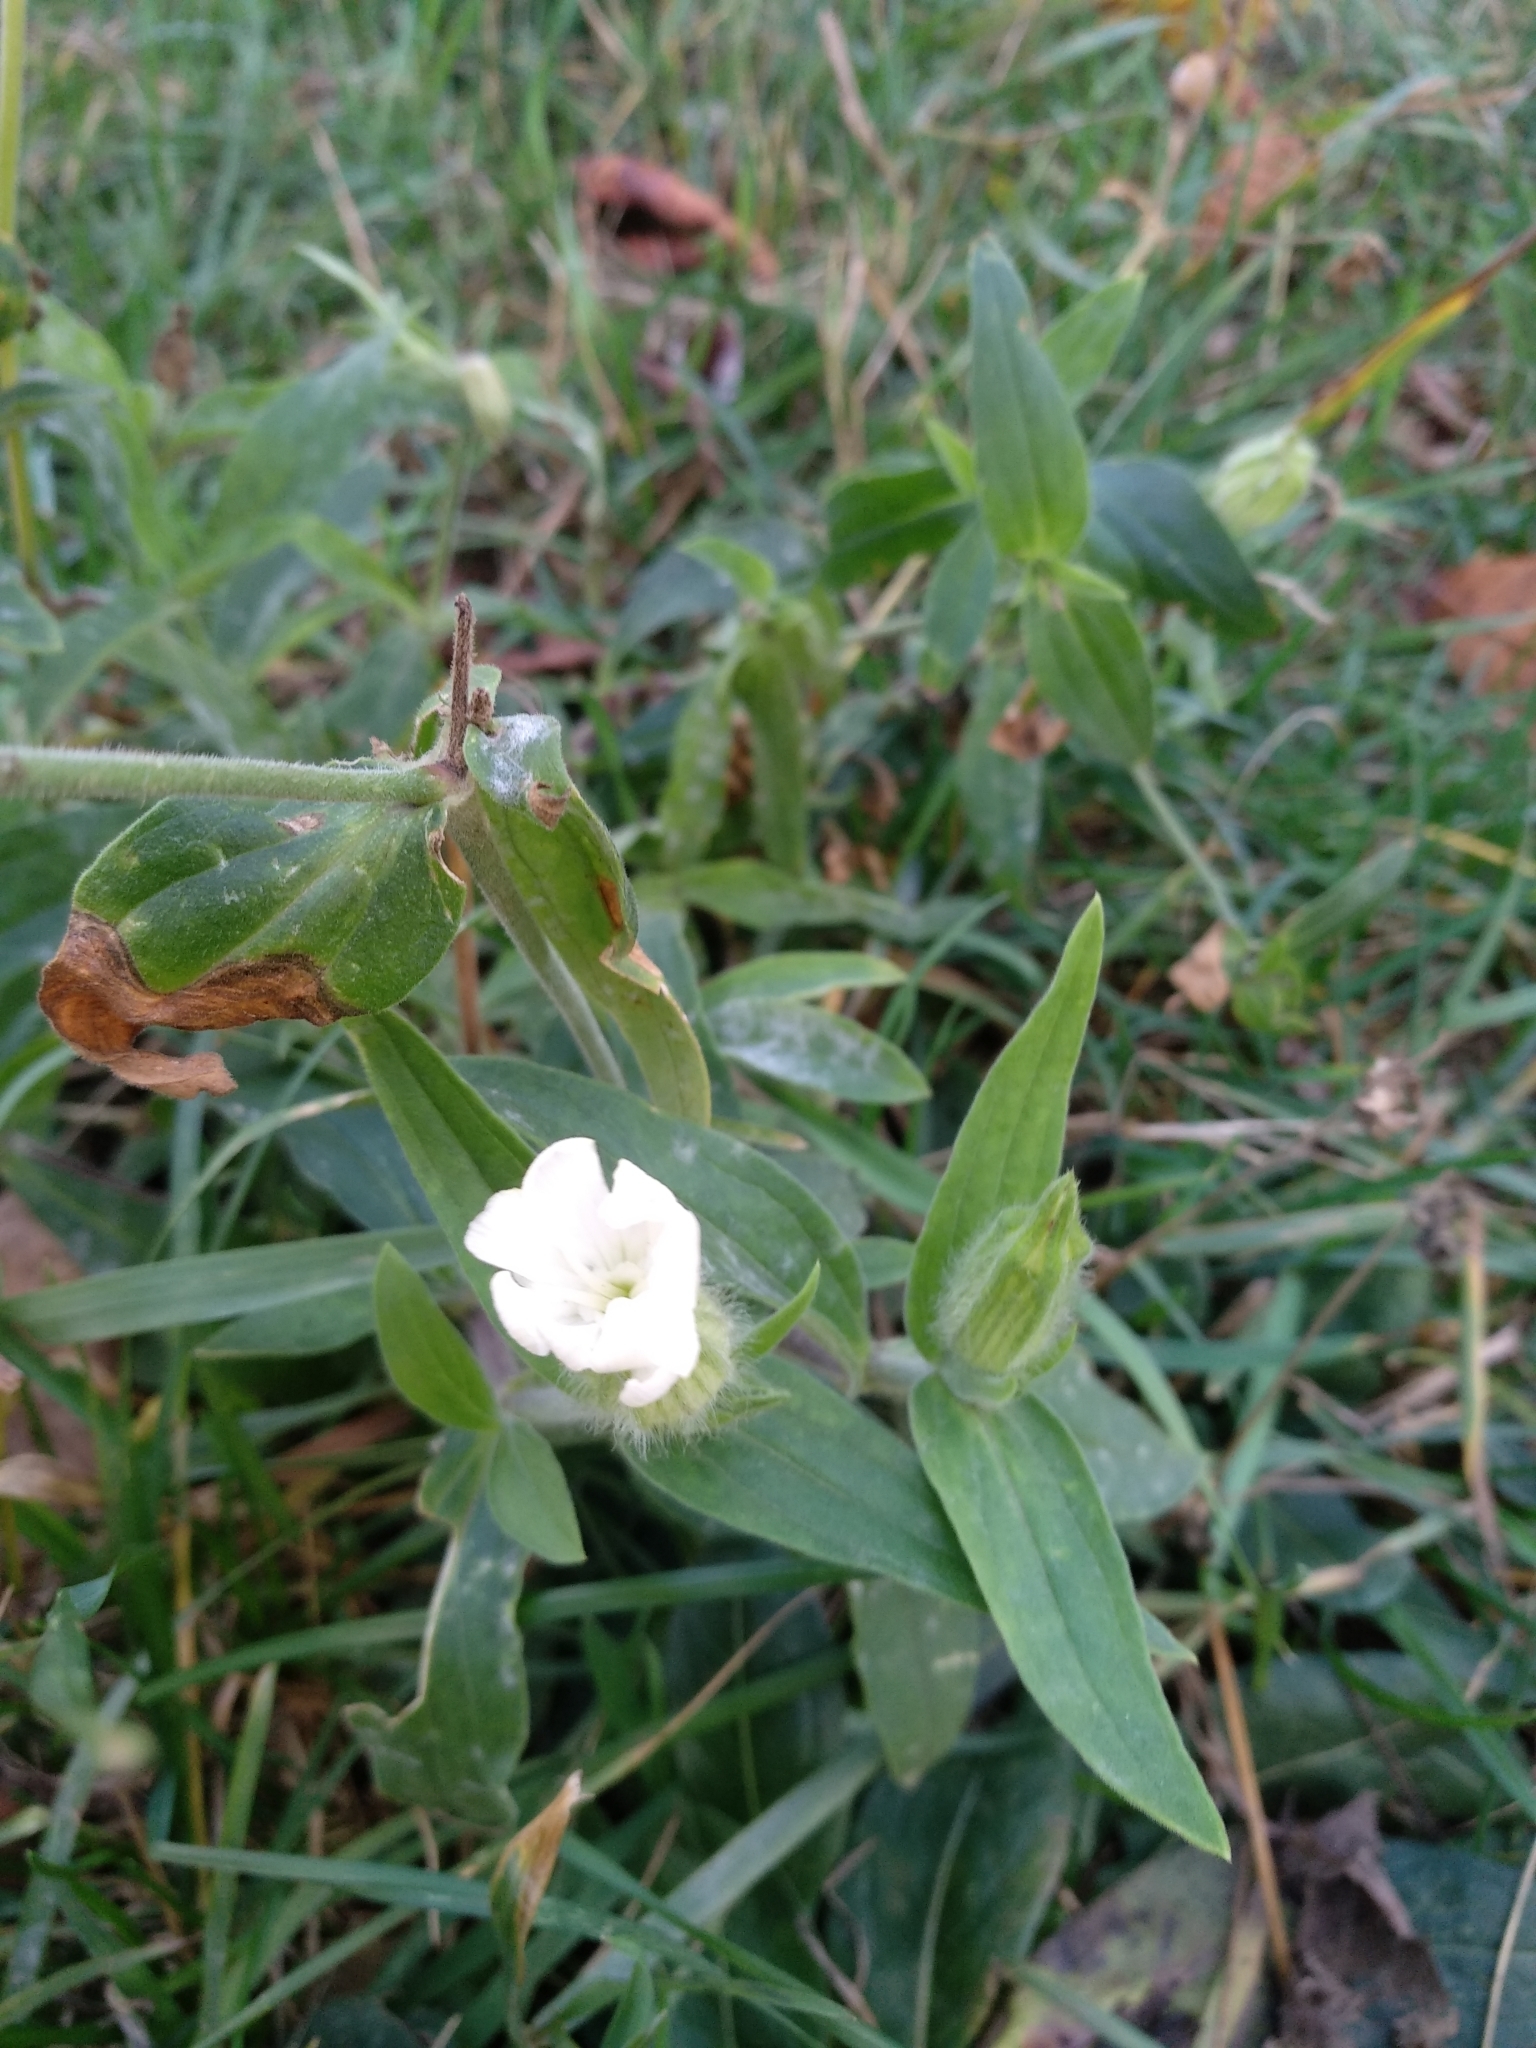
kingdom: Plantae
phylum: Tracheophyta
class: Magnoliopsida
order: Caryophyllales
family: Caryophyllaceae
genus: Silene
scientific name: Silene latifolia
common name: White campion
